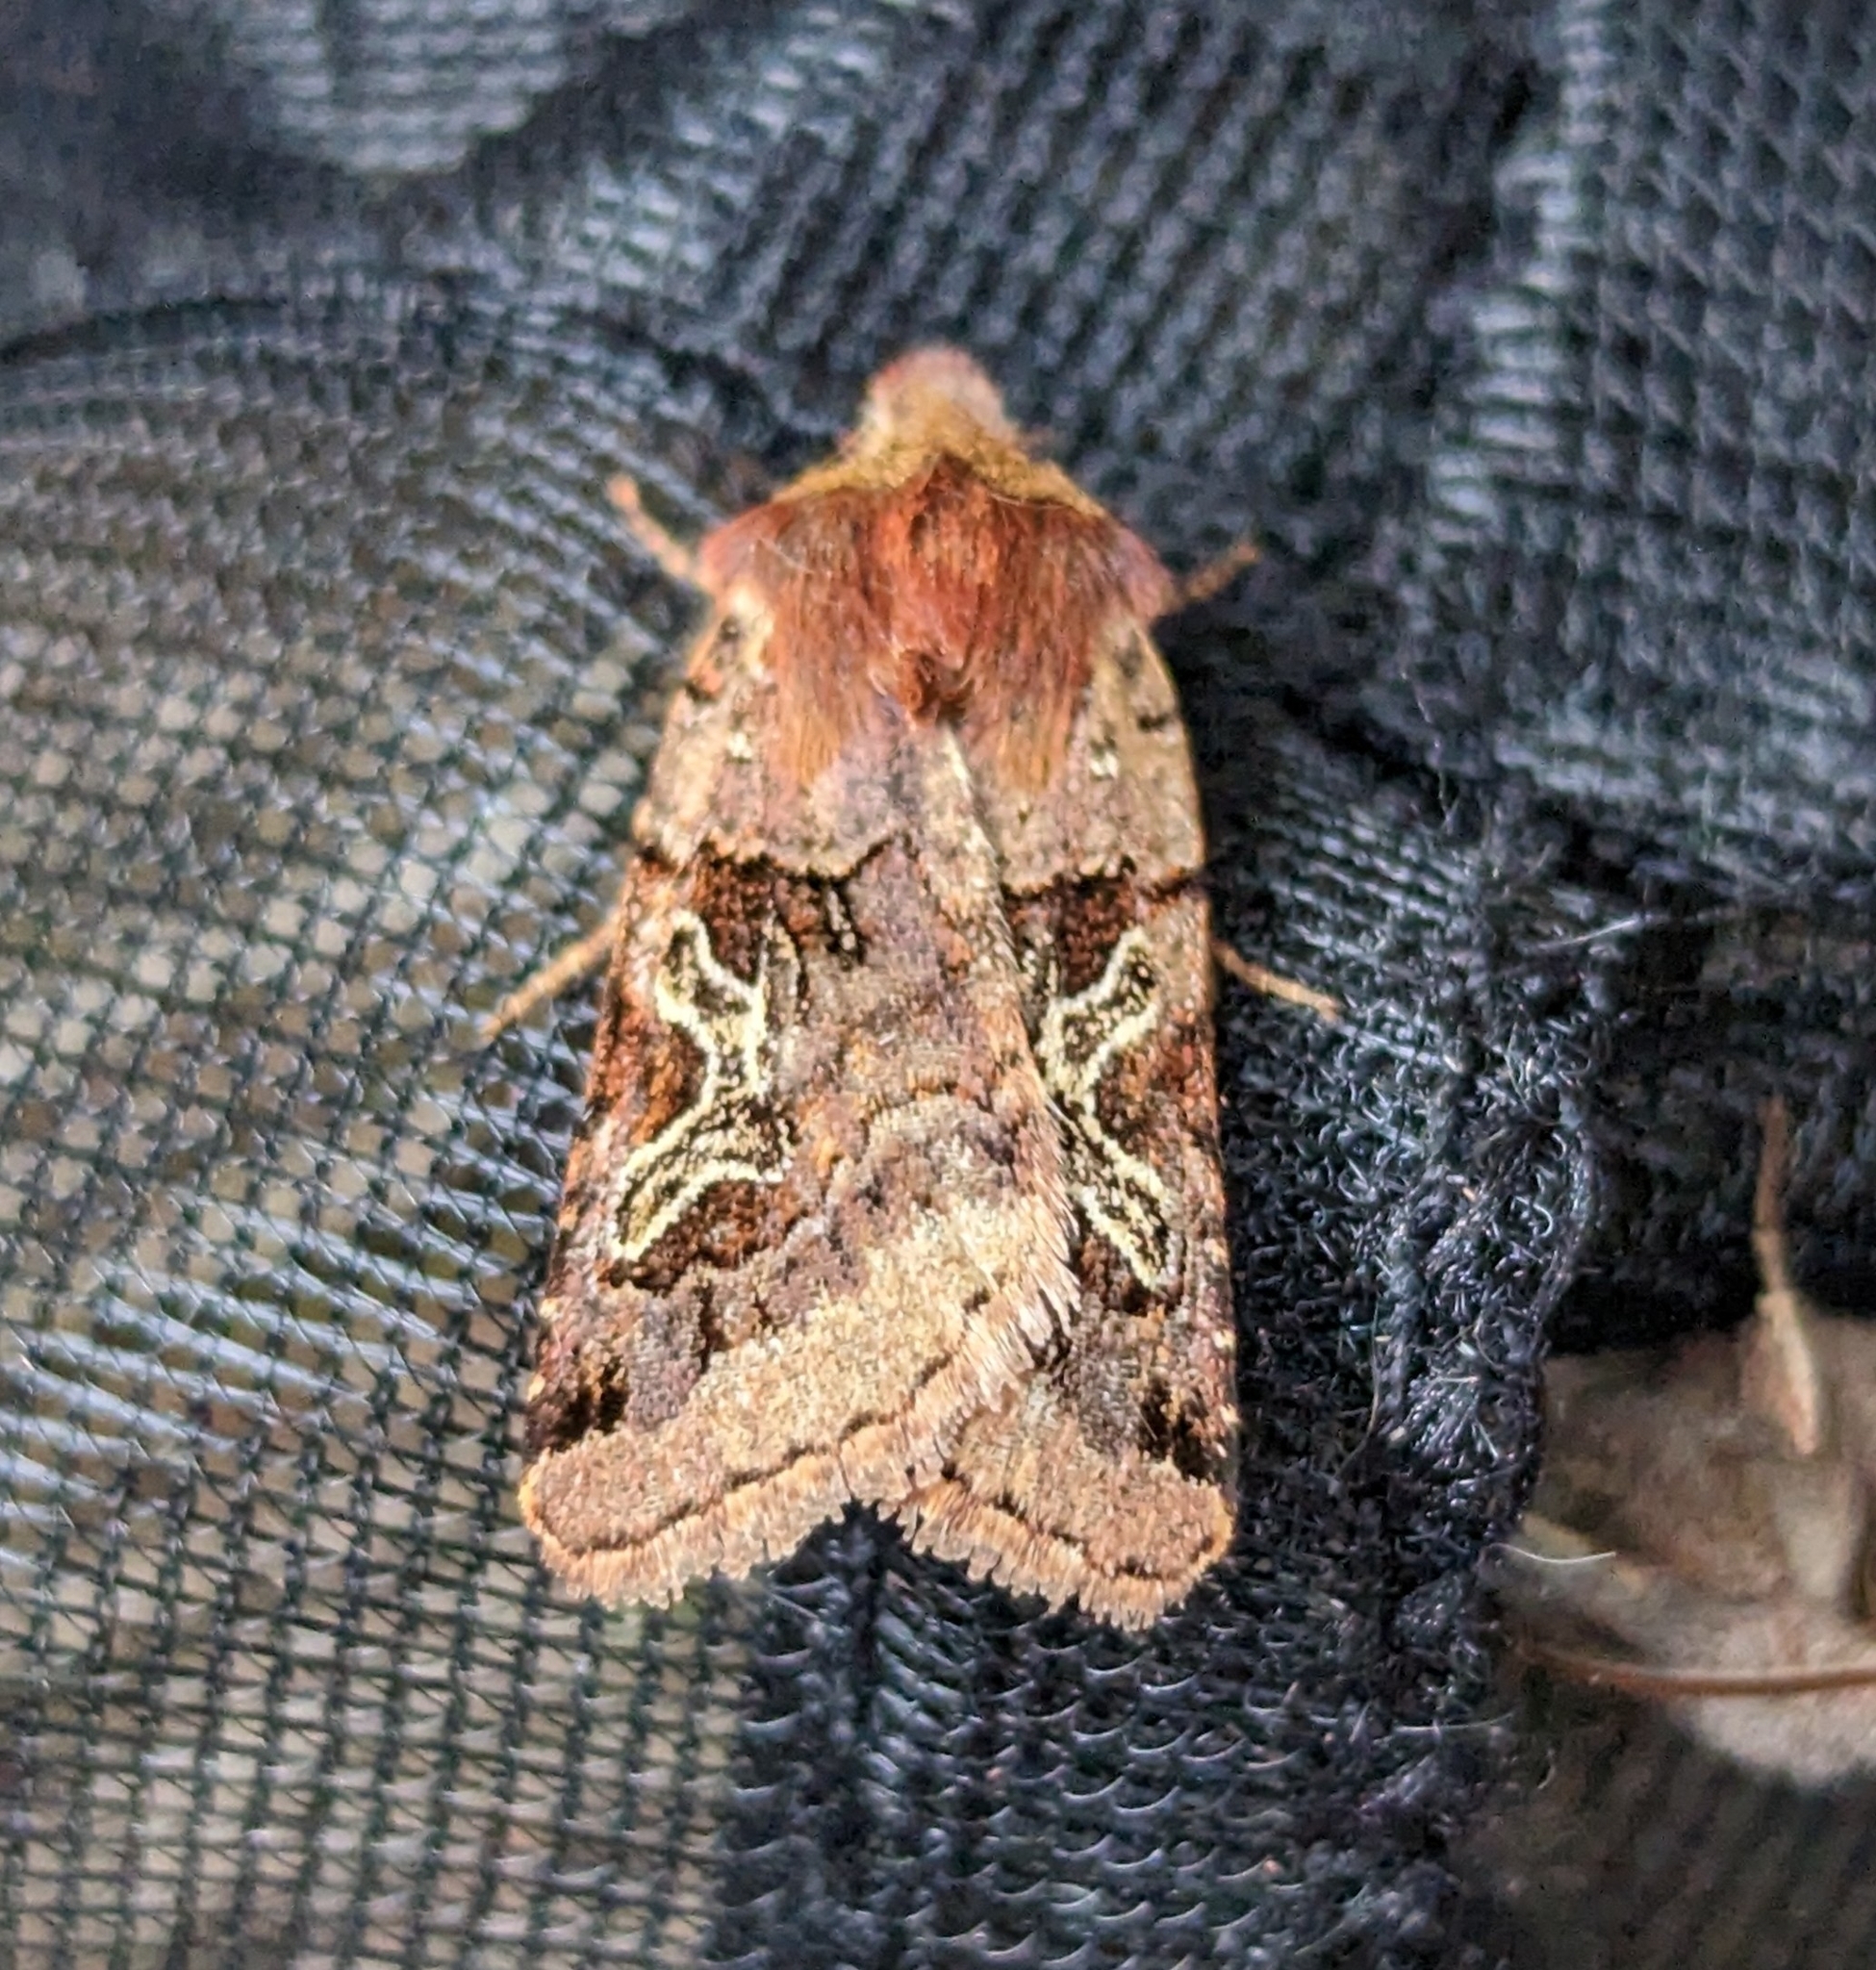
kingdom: Animalia
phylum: Arthropoda
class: Insecta
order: Lepidoptera
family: Noctuidae
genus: Cerastis
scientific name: Cerastis enigmatica
